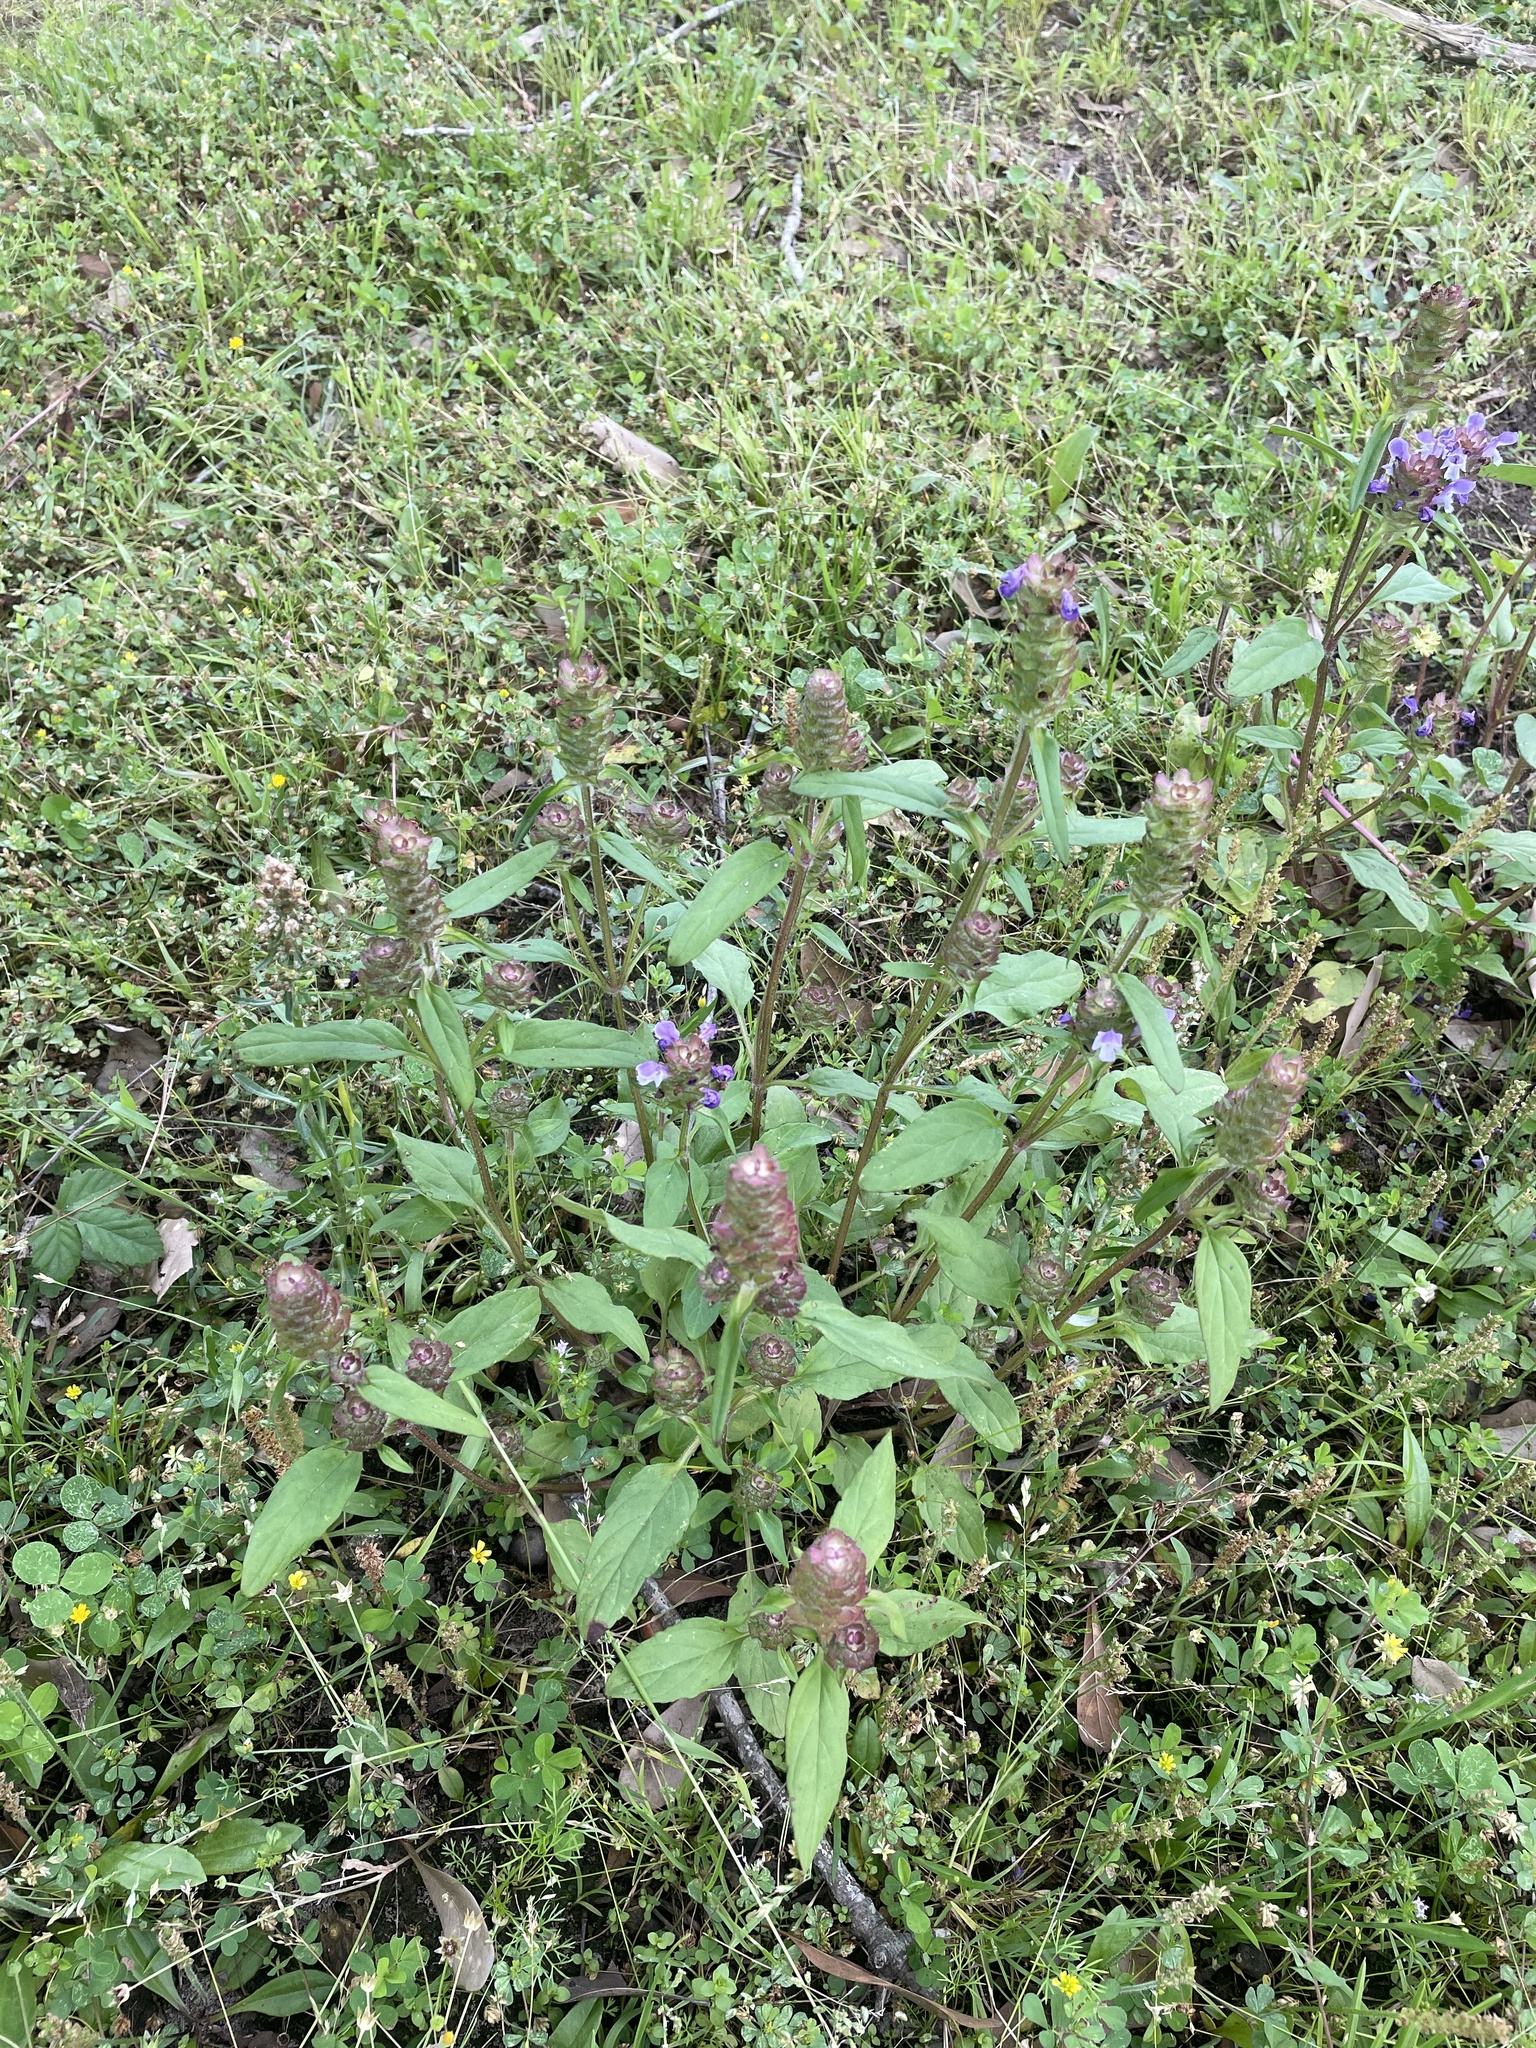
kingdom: Plantae
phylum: Tracheophyta
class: Magnoliopsida
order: Lamiales
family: Lamiaceae
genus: Prunella
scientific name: Prunella vulgaris
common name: Heal-all
